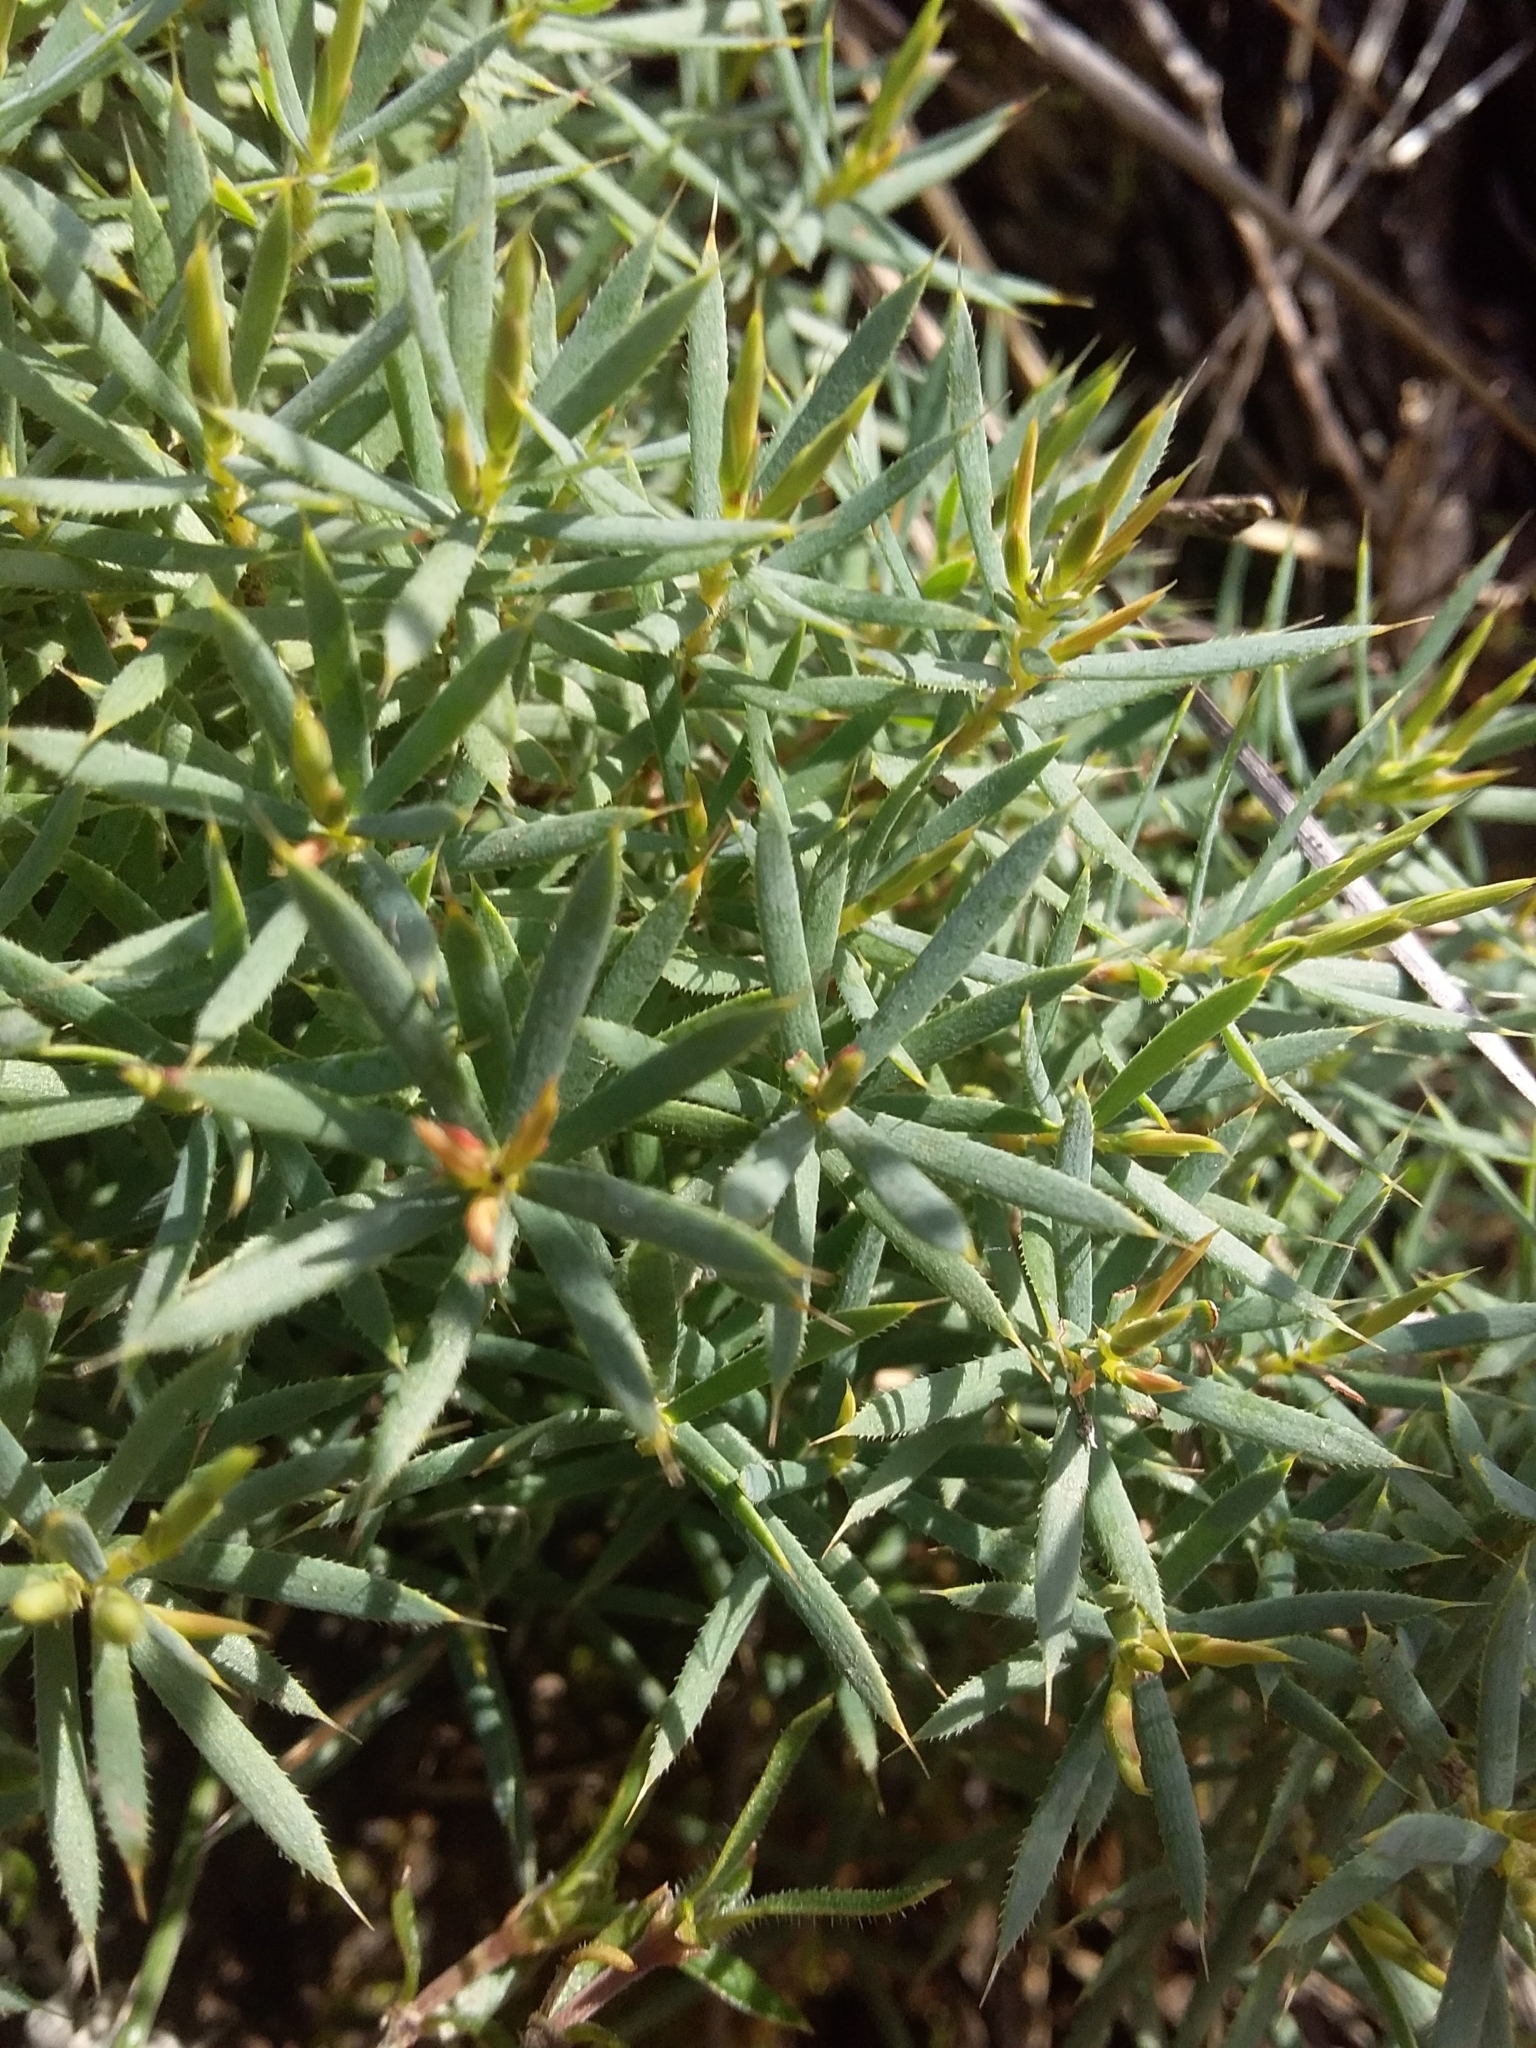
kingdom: Plantae
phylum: Tracheophyta
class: Magnoliopsida
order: Ericales
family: Ericaceae
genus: Styphelia
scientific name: Styphelia humifusa
